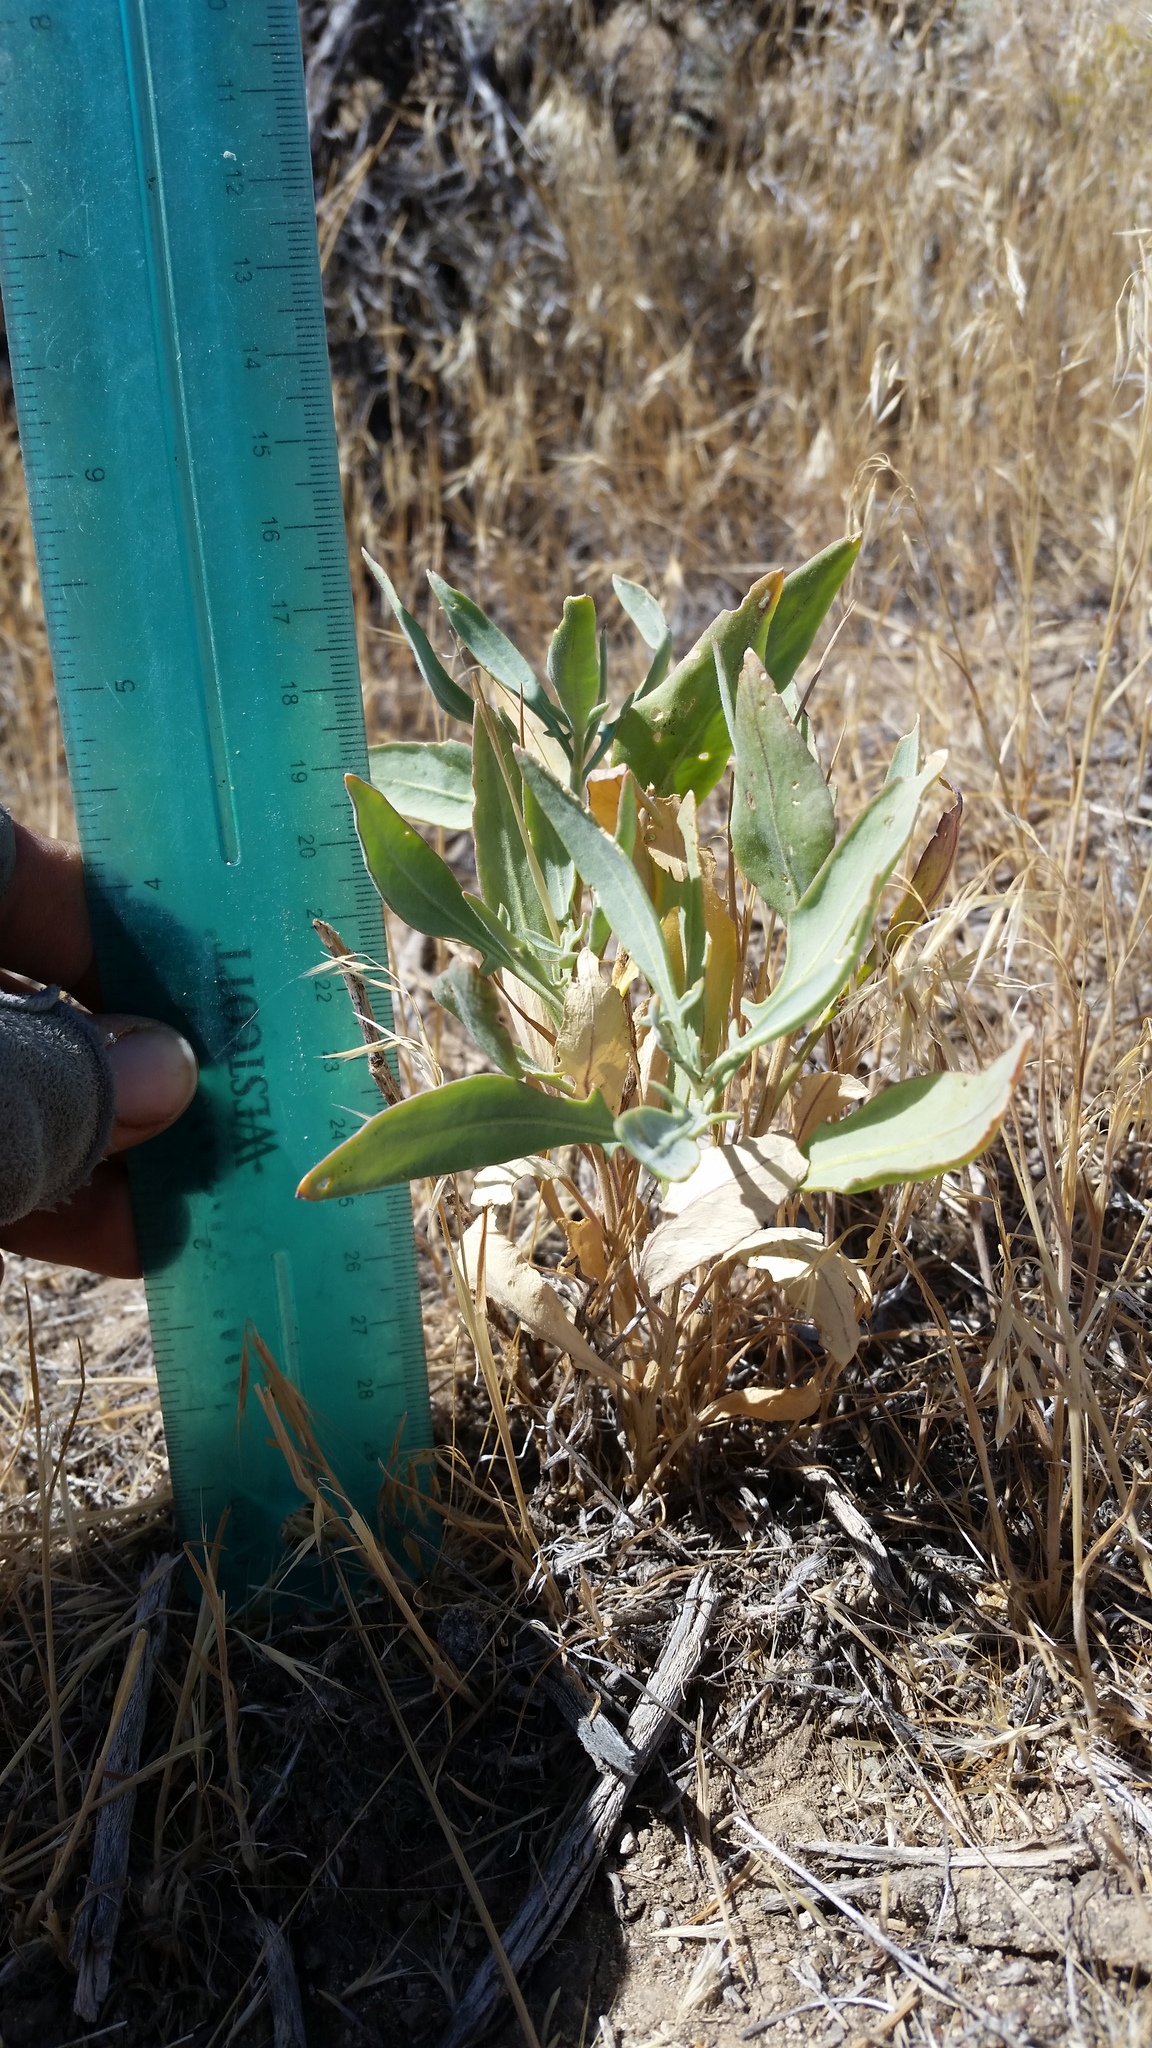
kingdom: Plantae
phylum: Tracheophyta
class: Magnoliopsida
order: Brassicales
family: Brassicaceae
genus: Stanleya
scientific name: Stanleya pinnata
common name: Prince's-plume
